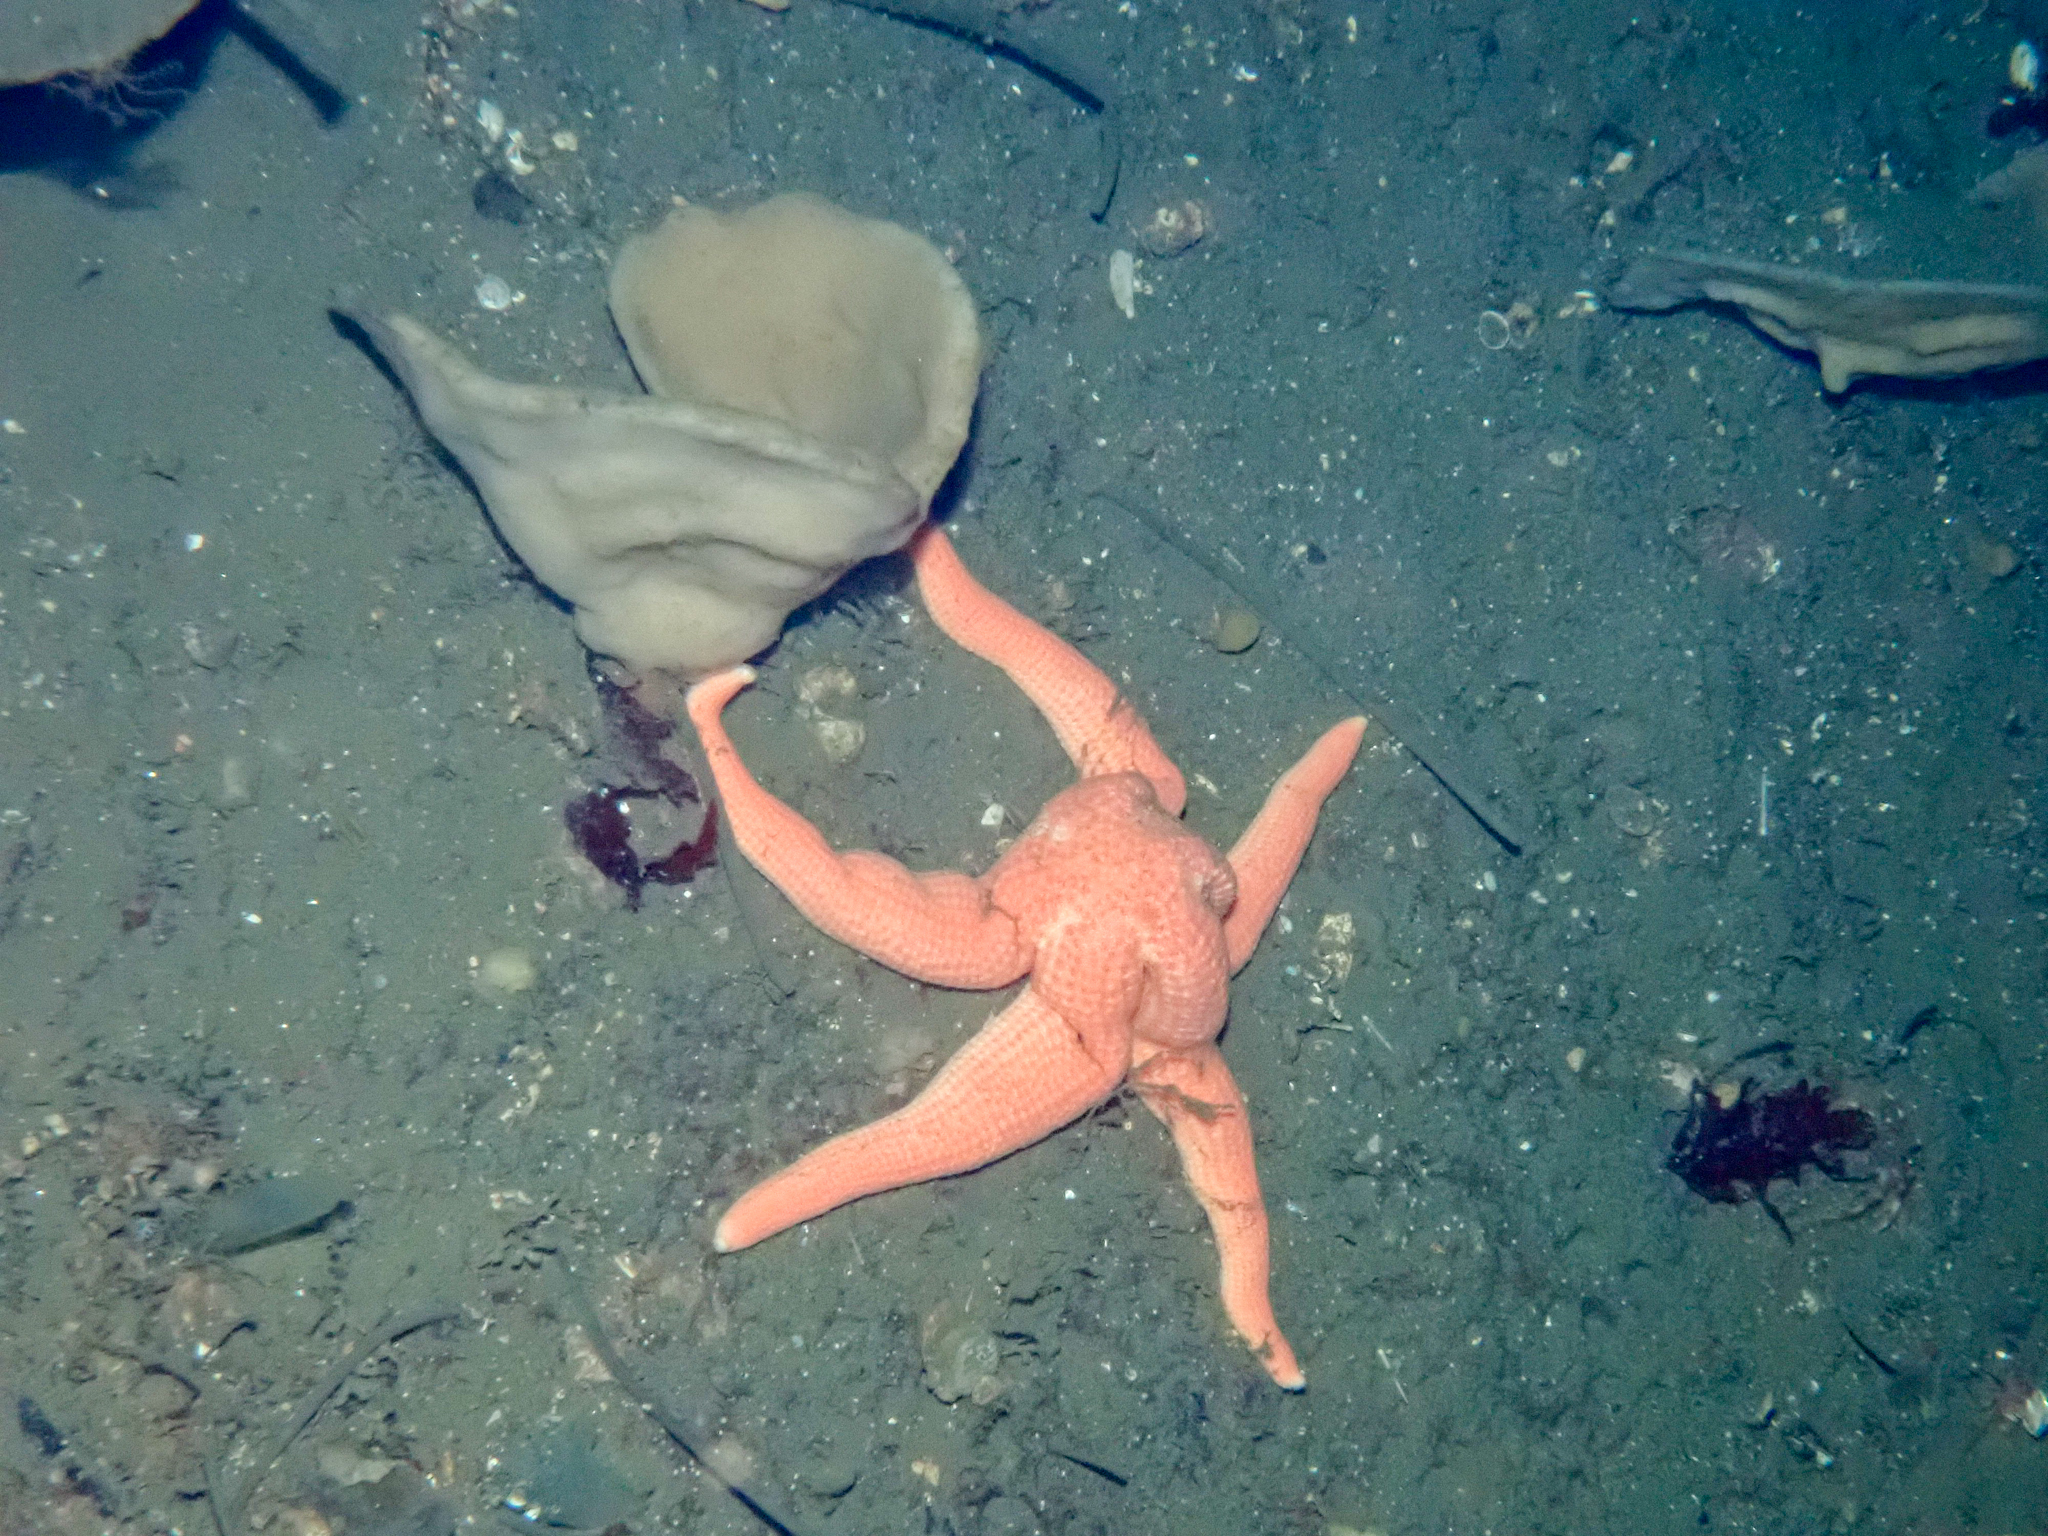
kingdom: Animalia
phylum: Echinodermata
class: Asteroidea
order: Forcipulatida
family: Stichasteridae
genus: Stichastrella
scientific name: Stichastrella rosea
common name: Rosy starfish
